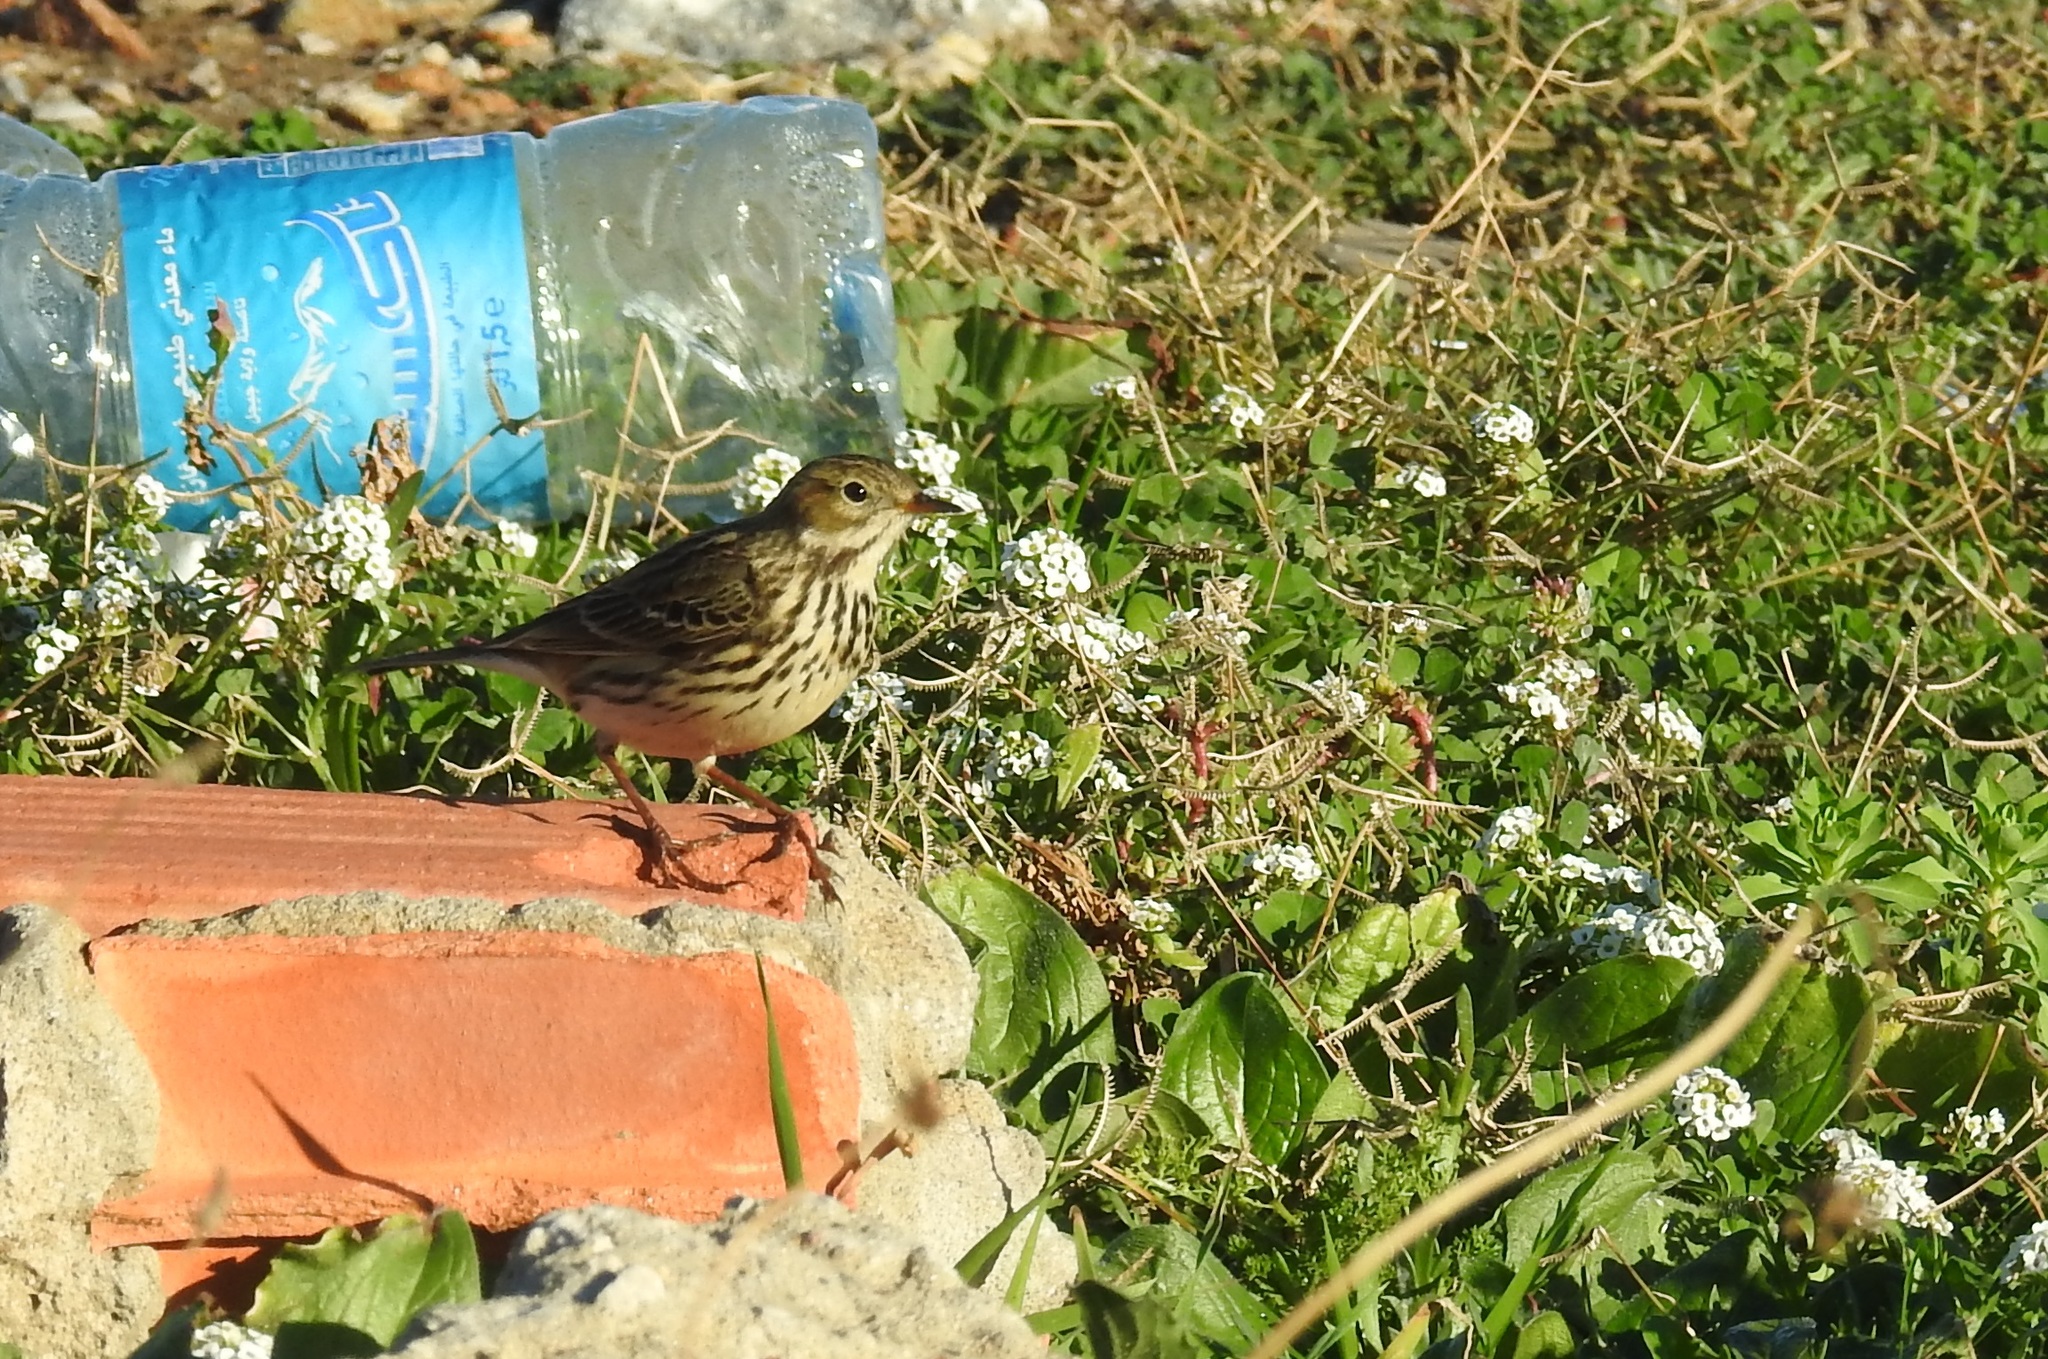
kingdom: Animalia
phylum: Chordata
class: Aves
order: Passeriformes
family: Motacillidae
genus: Anthus
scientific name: Anthus pratensis
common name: Meadow pipit
